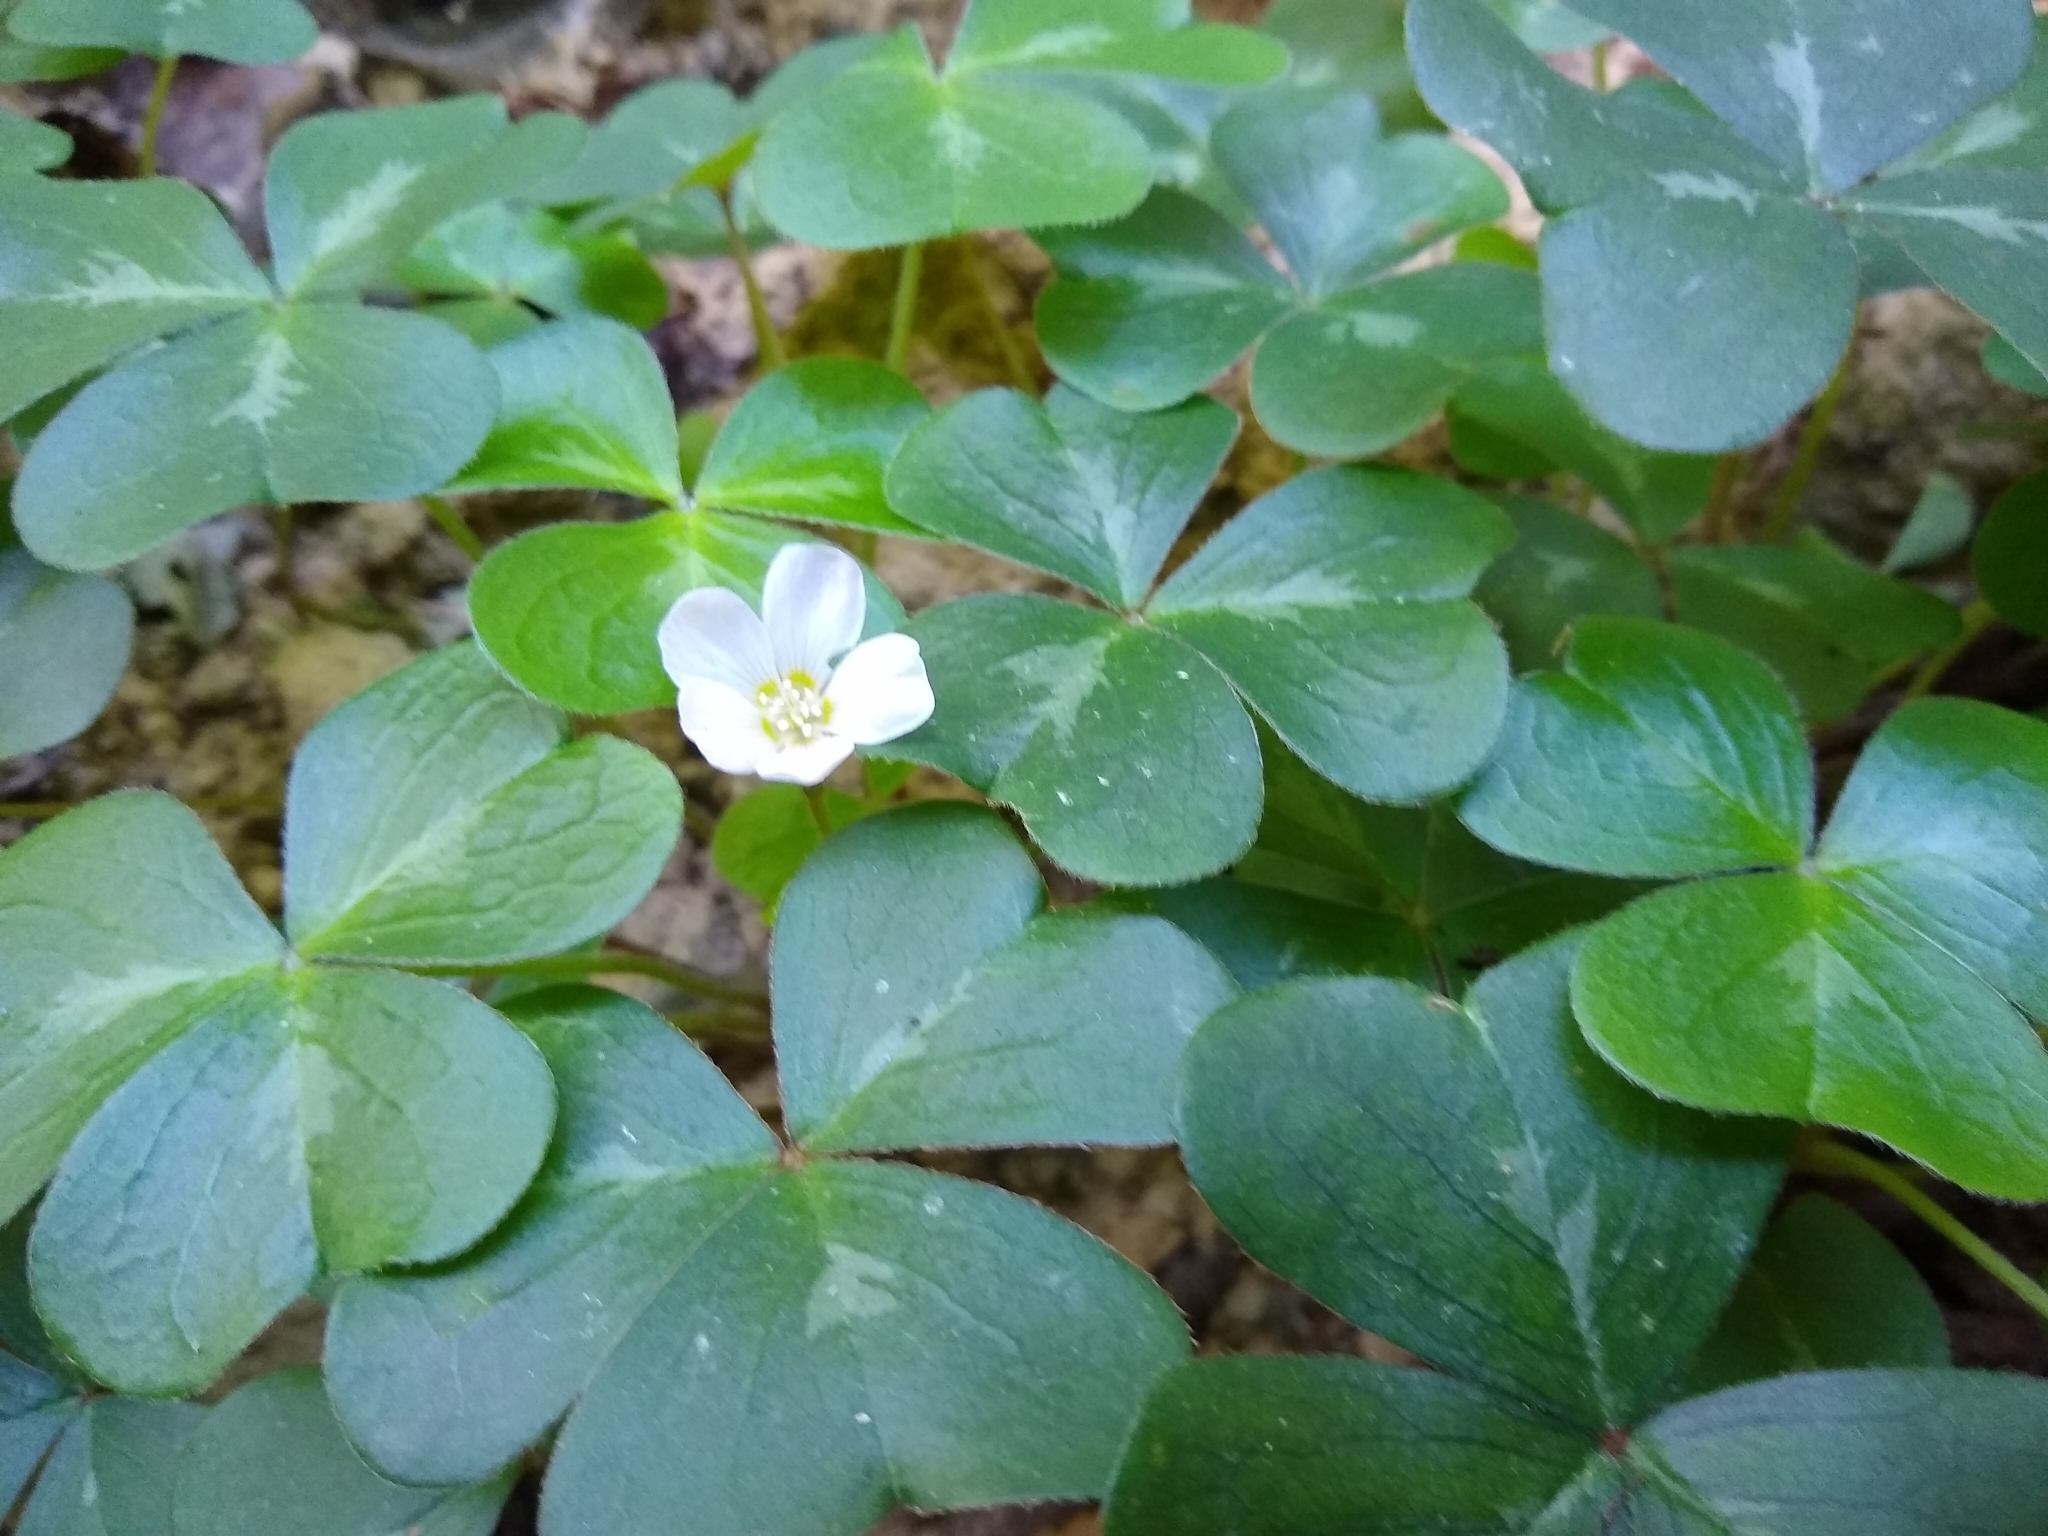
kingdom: Plantae
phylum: Tracheophyta
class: Magnoliopsida
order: Oxalidales
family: Oxalidaceae
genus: Oxalis
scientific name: Oxalis oregana
